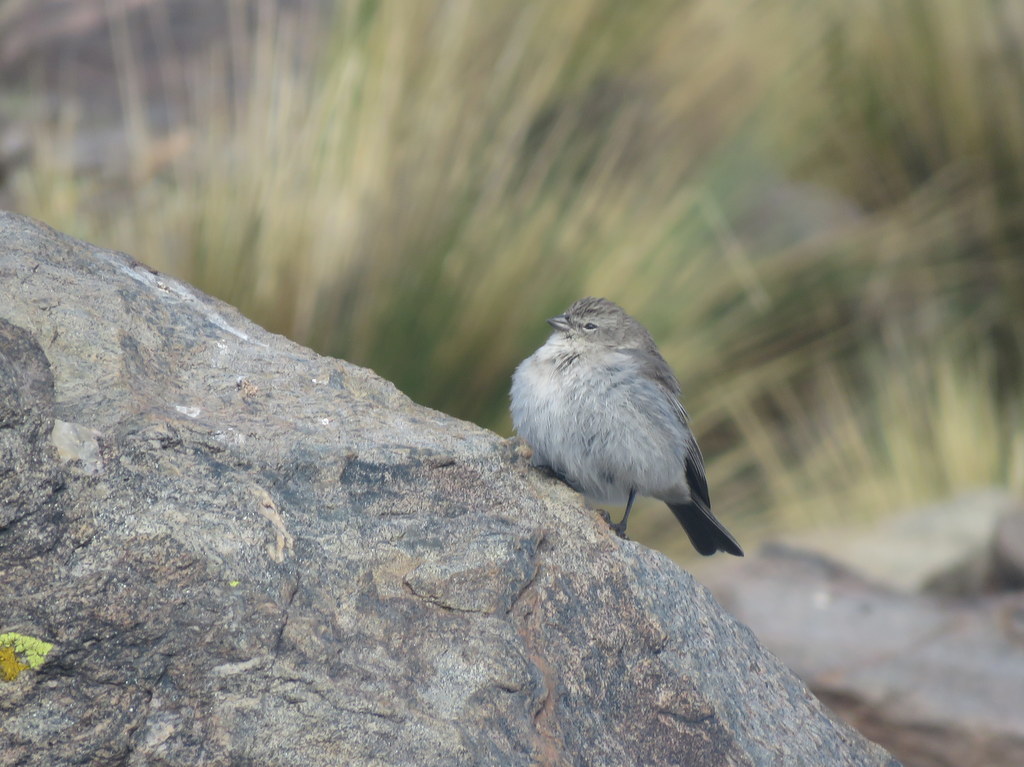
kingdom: Animalia
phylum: Chordata
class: Aves
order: Passeriformes
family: Thraupidae
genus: Geospizopsis
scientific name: Geospizopsis plebejus
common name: Ash-breasted sierra-finch
